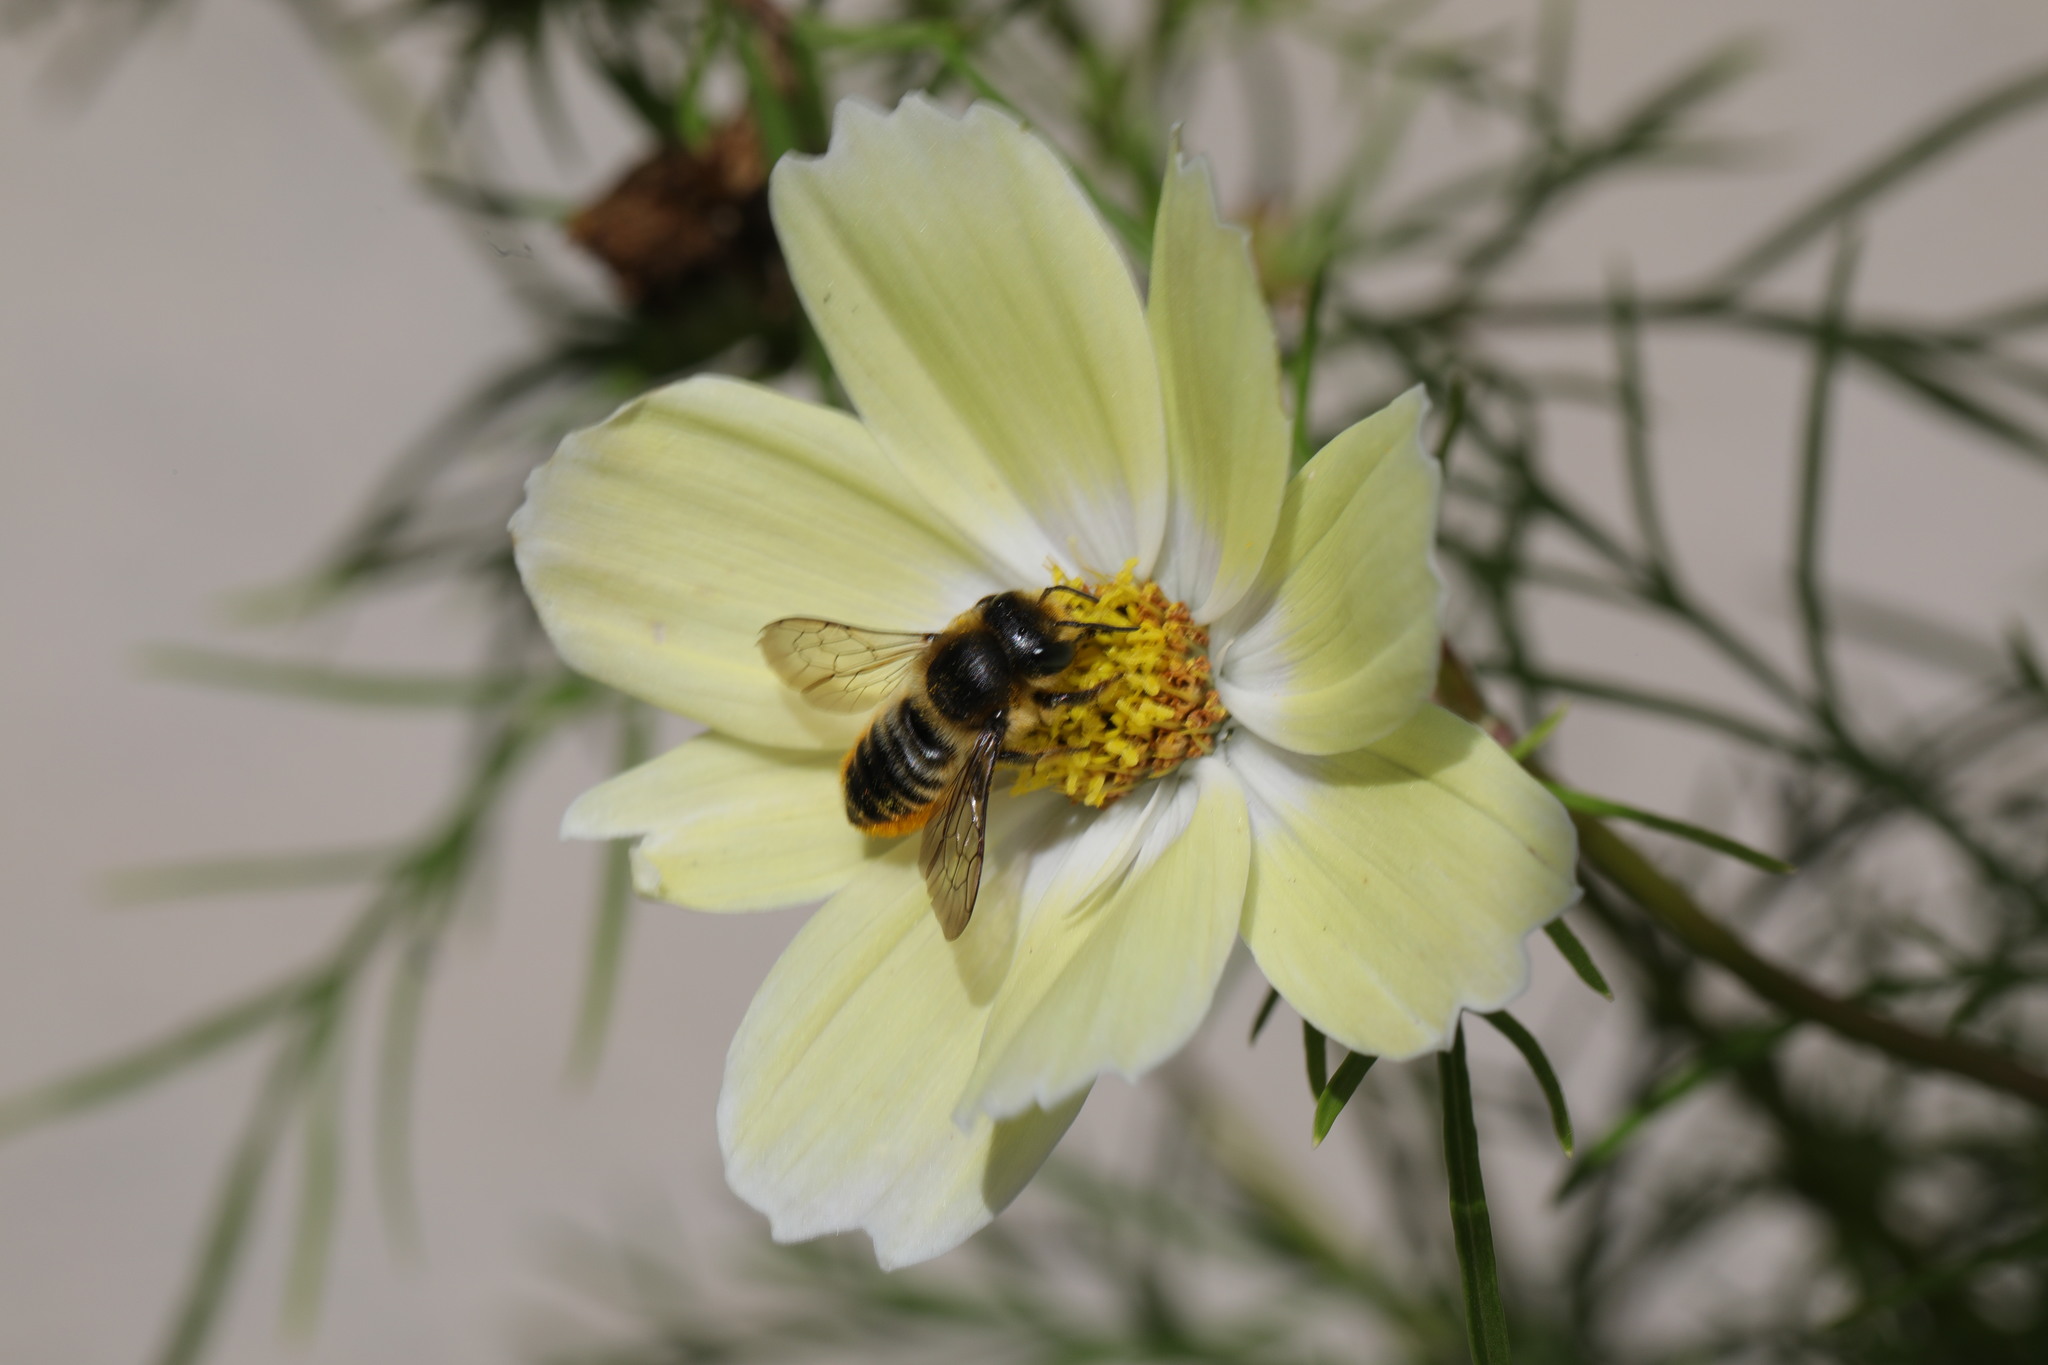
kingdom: Animalia
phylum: Arthropoda
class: Insecta
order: Hymenoptera
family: Megachilidae
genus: Megachile
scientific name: Megachile centuncularis
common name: Patchwork leafcutter bee
